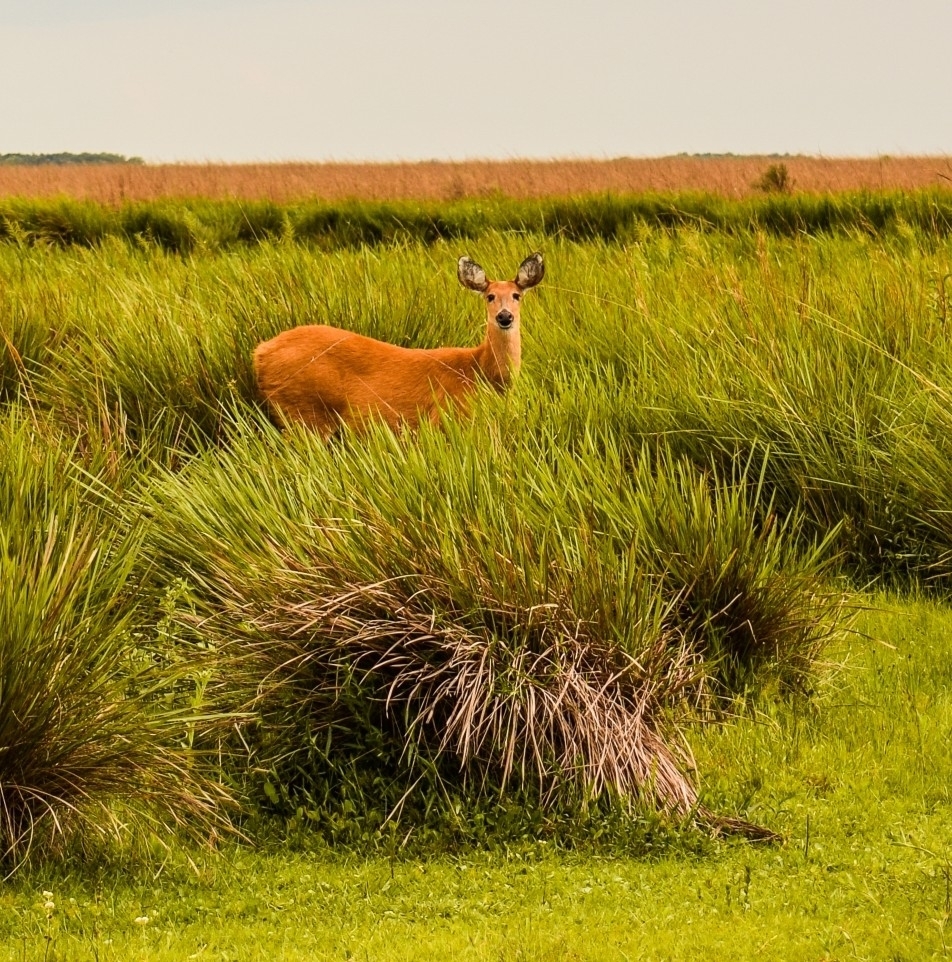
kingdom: Animalia
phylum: Chordata
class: Mammalia
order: Artiodactyla
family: Cervidae
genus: Blastocerus
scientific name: Blastocerus dichotomus
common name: Marsh deer
